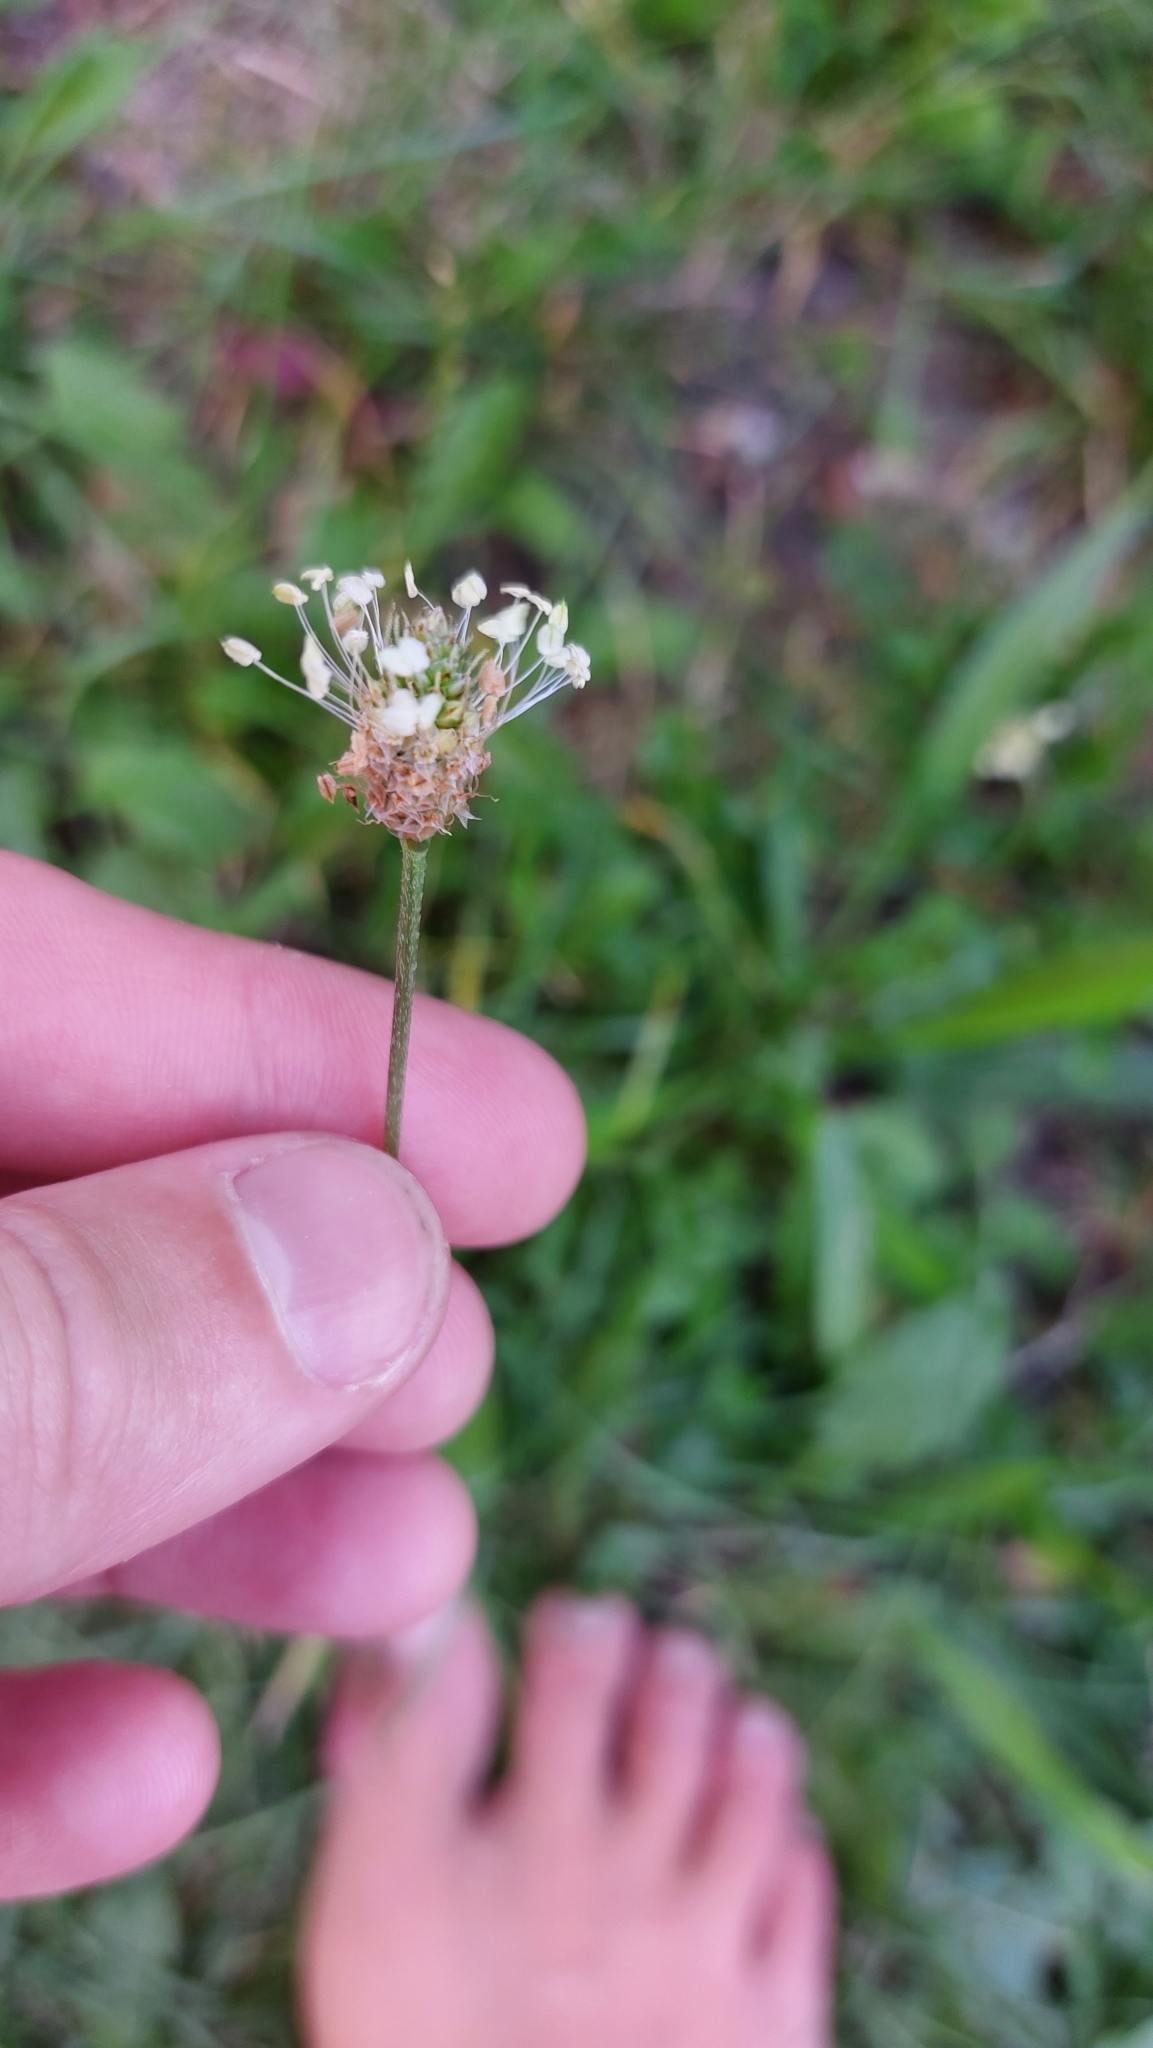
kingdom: Plantae
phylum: Tracheophyta
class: Magnoliopsida
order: Lamiales
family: Plantaginaceae
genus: Plantago
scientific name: Plantago lanceolata
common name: Ribwort plantain
